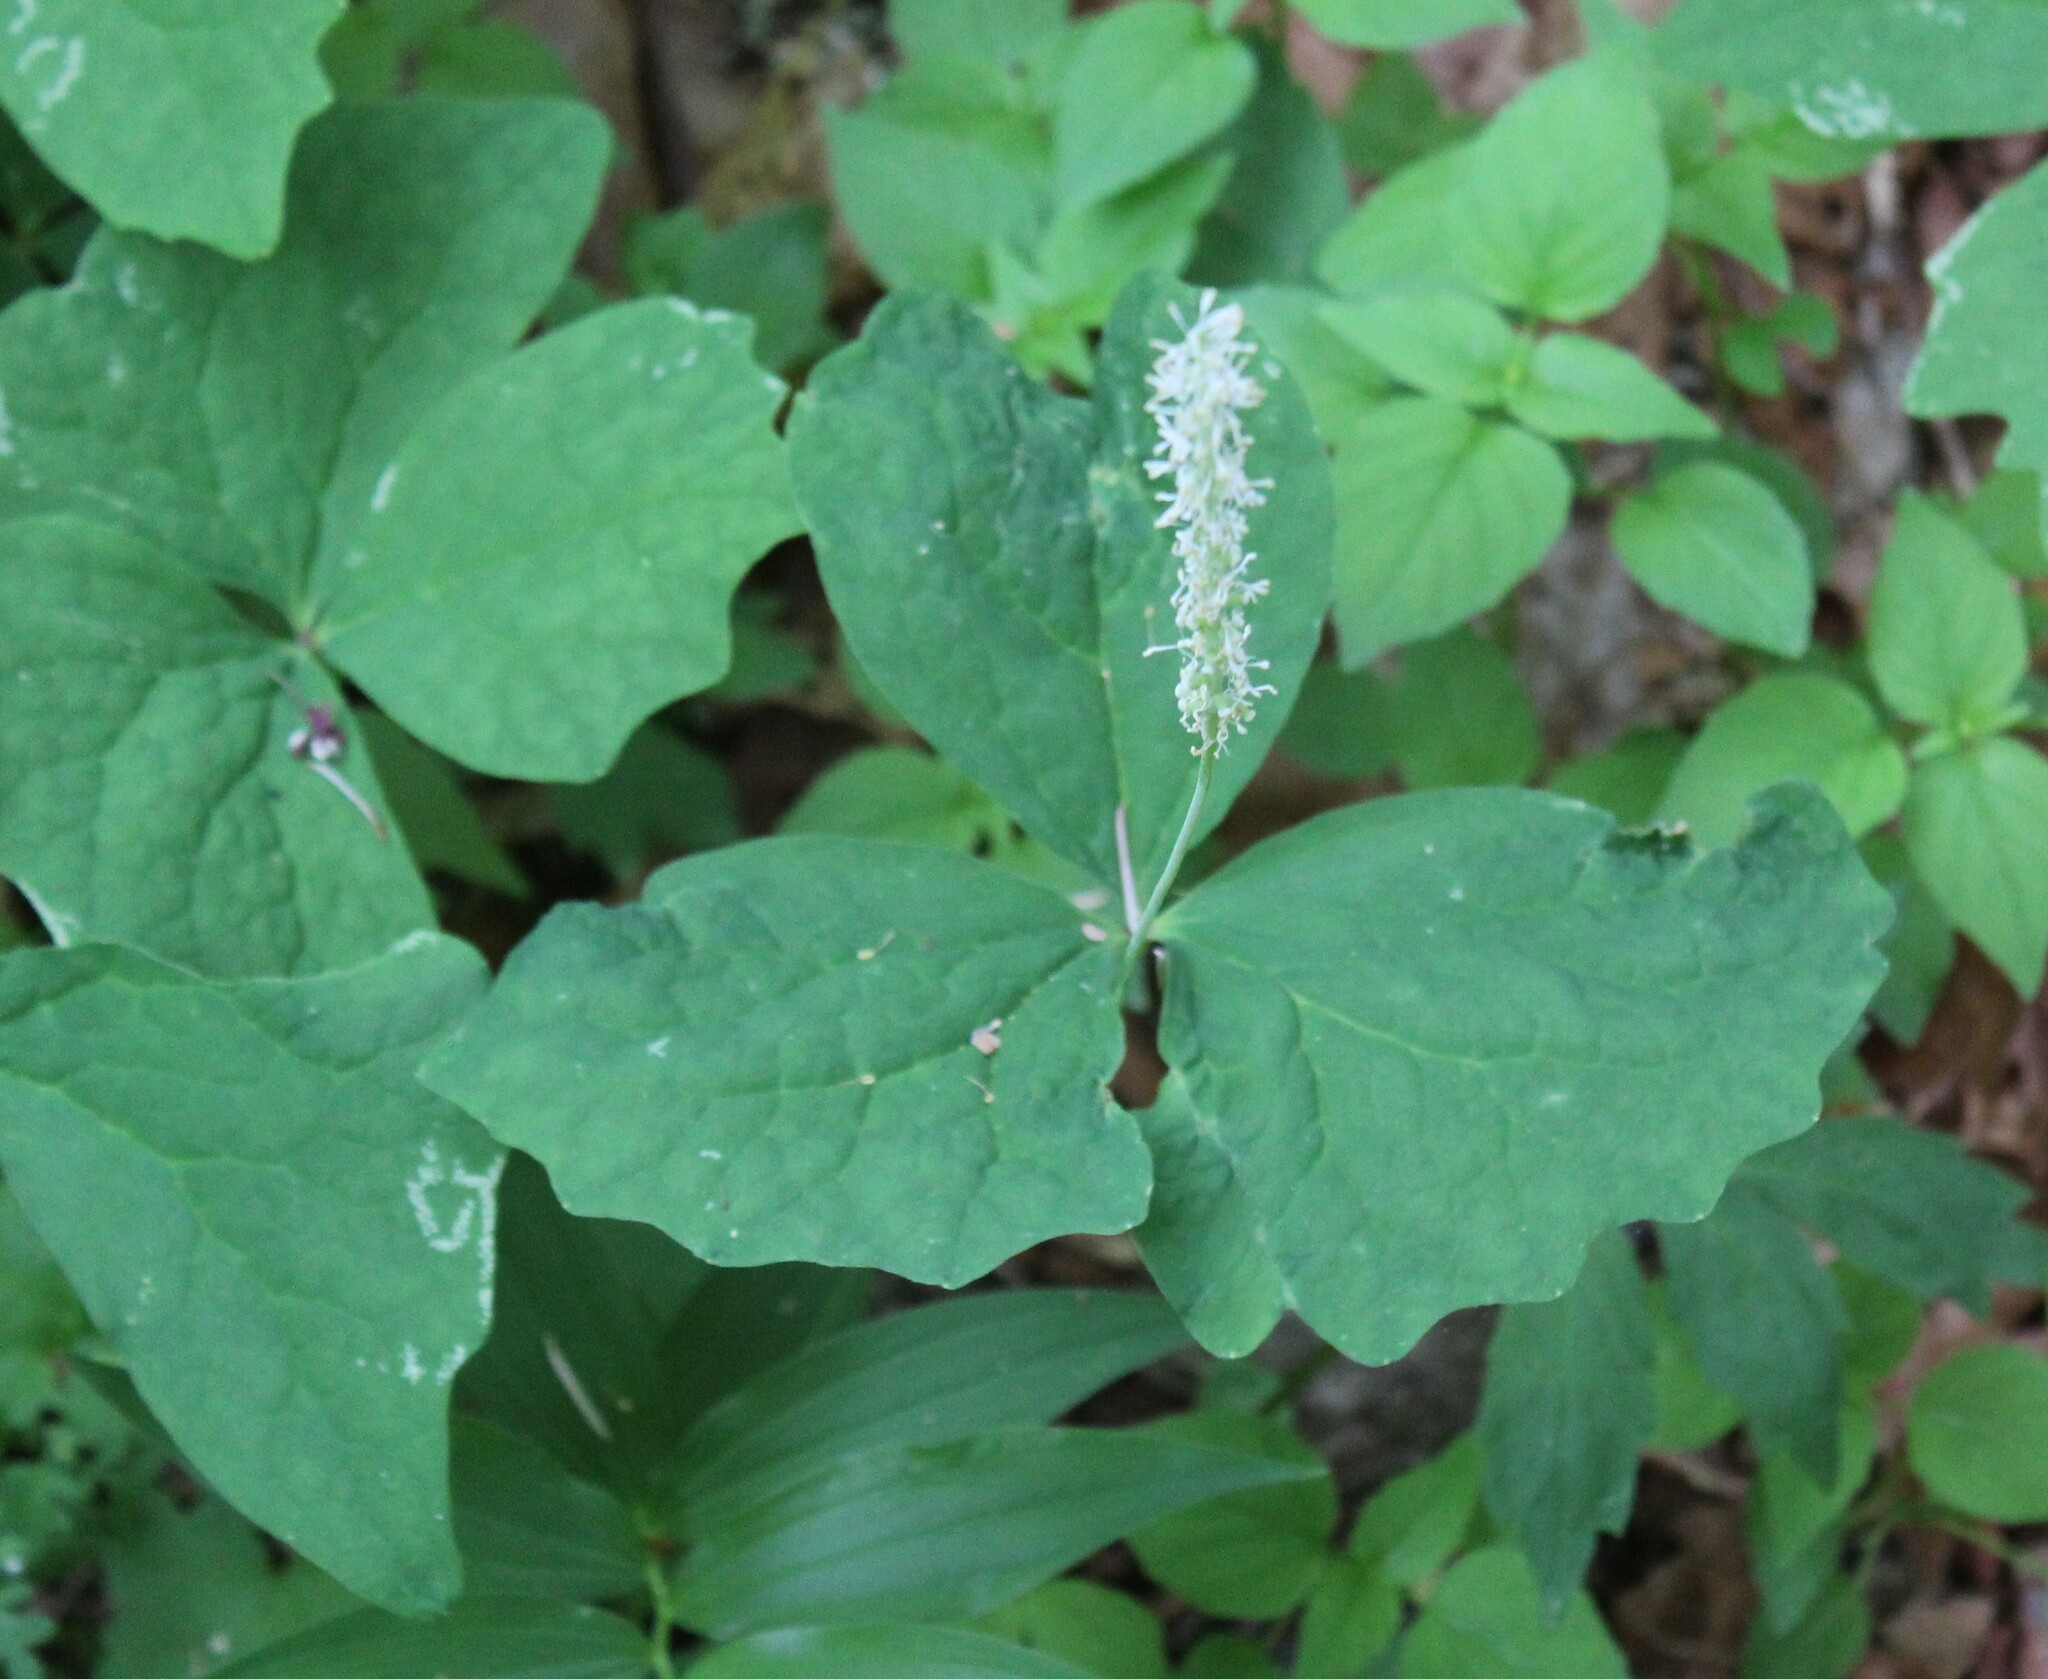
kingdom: Plantae
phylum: Tracheophyta
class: Magnoliopsida
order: Ranunculales
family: Berberidaceae
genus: Achlys
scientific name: Achlys triphylla
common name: Vanilla-leaf
